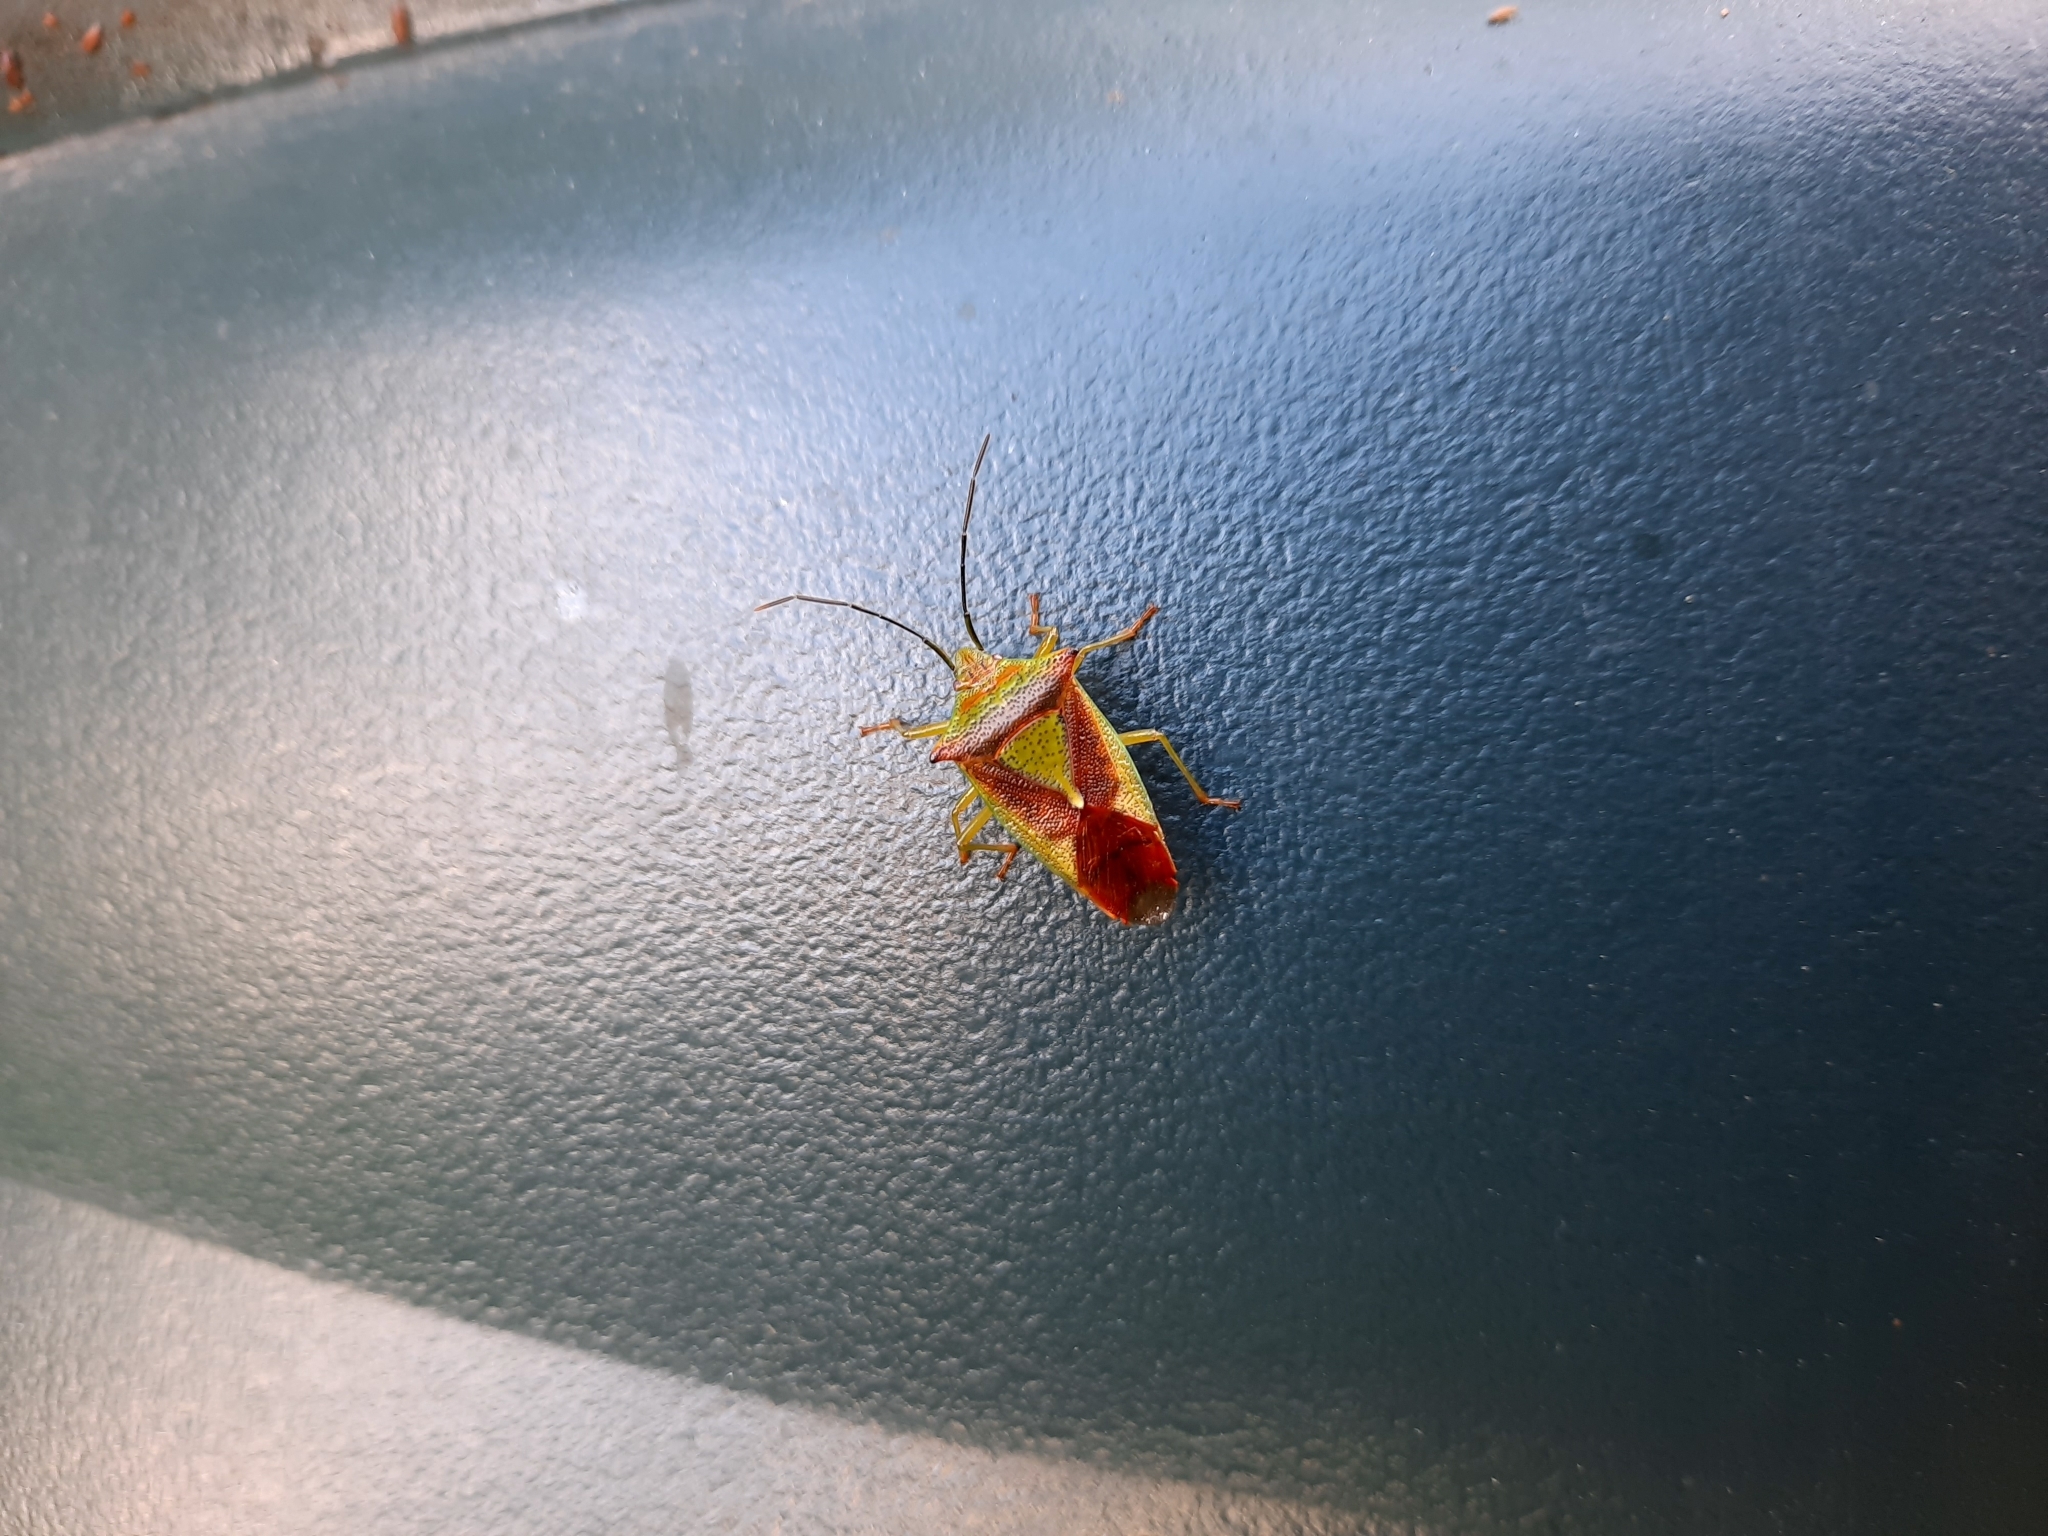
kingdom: Animalia
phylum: Arthropoda
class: Insecta
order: Hemiptera
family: Acanthosomatidae
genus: Acanthosoma
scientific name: Acanthosoma haemorrhoidale
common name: Hawthorn shieldbug
